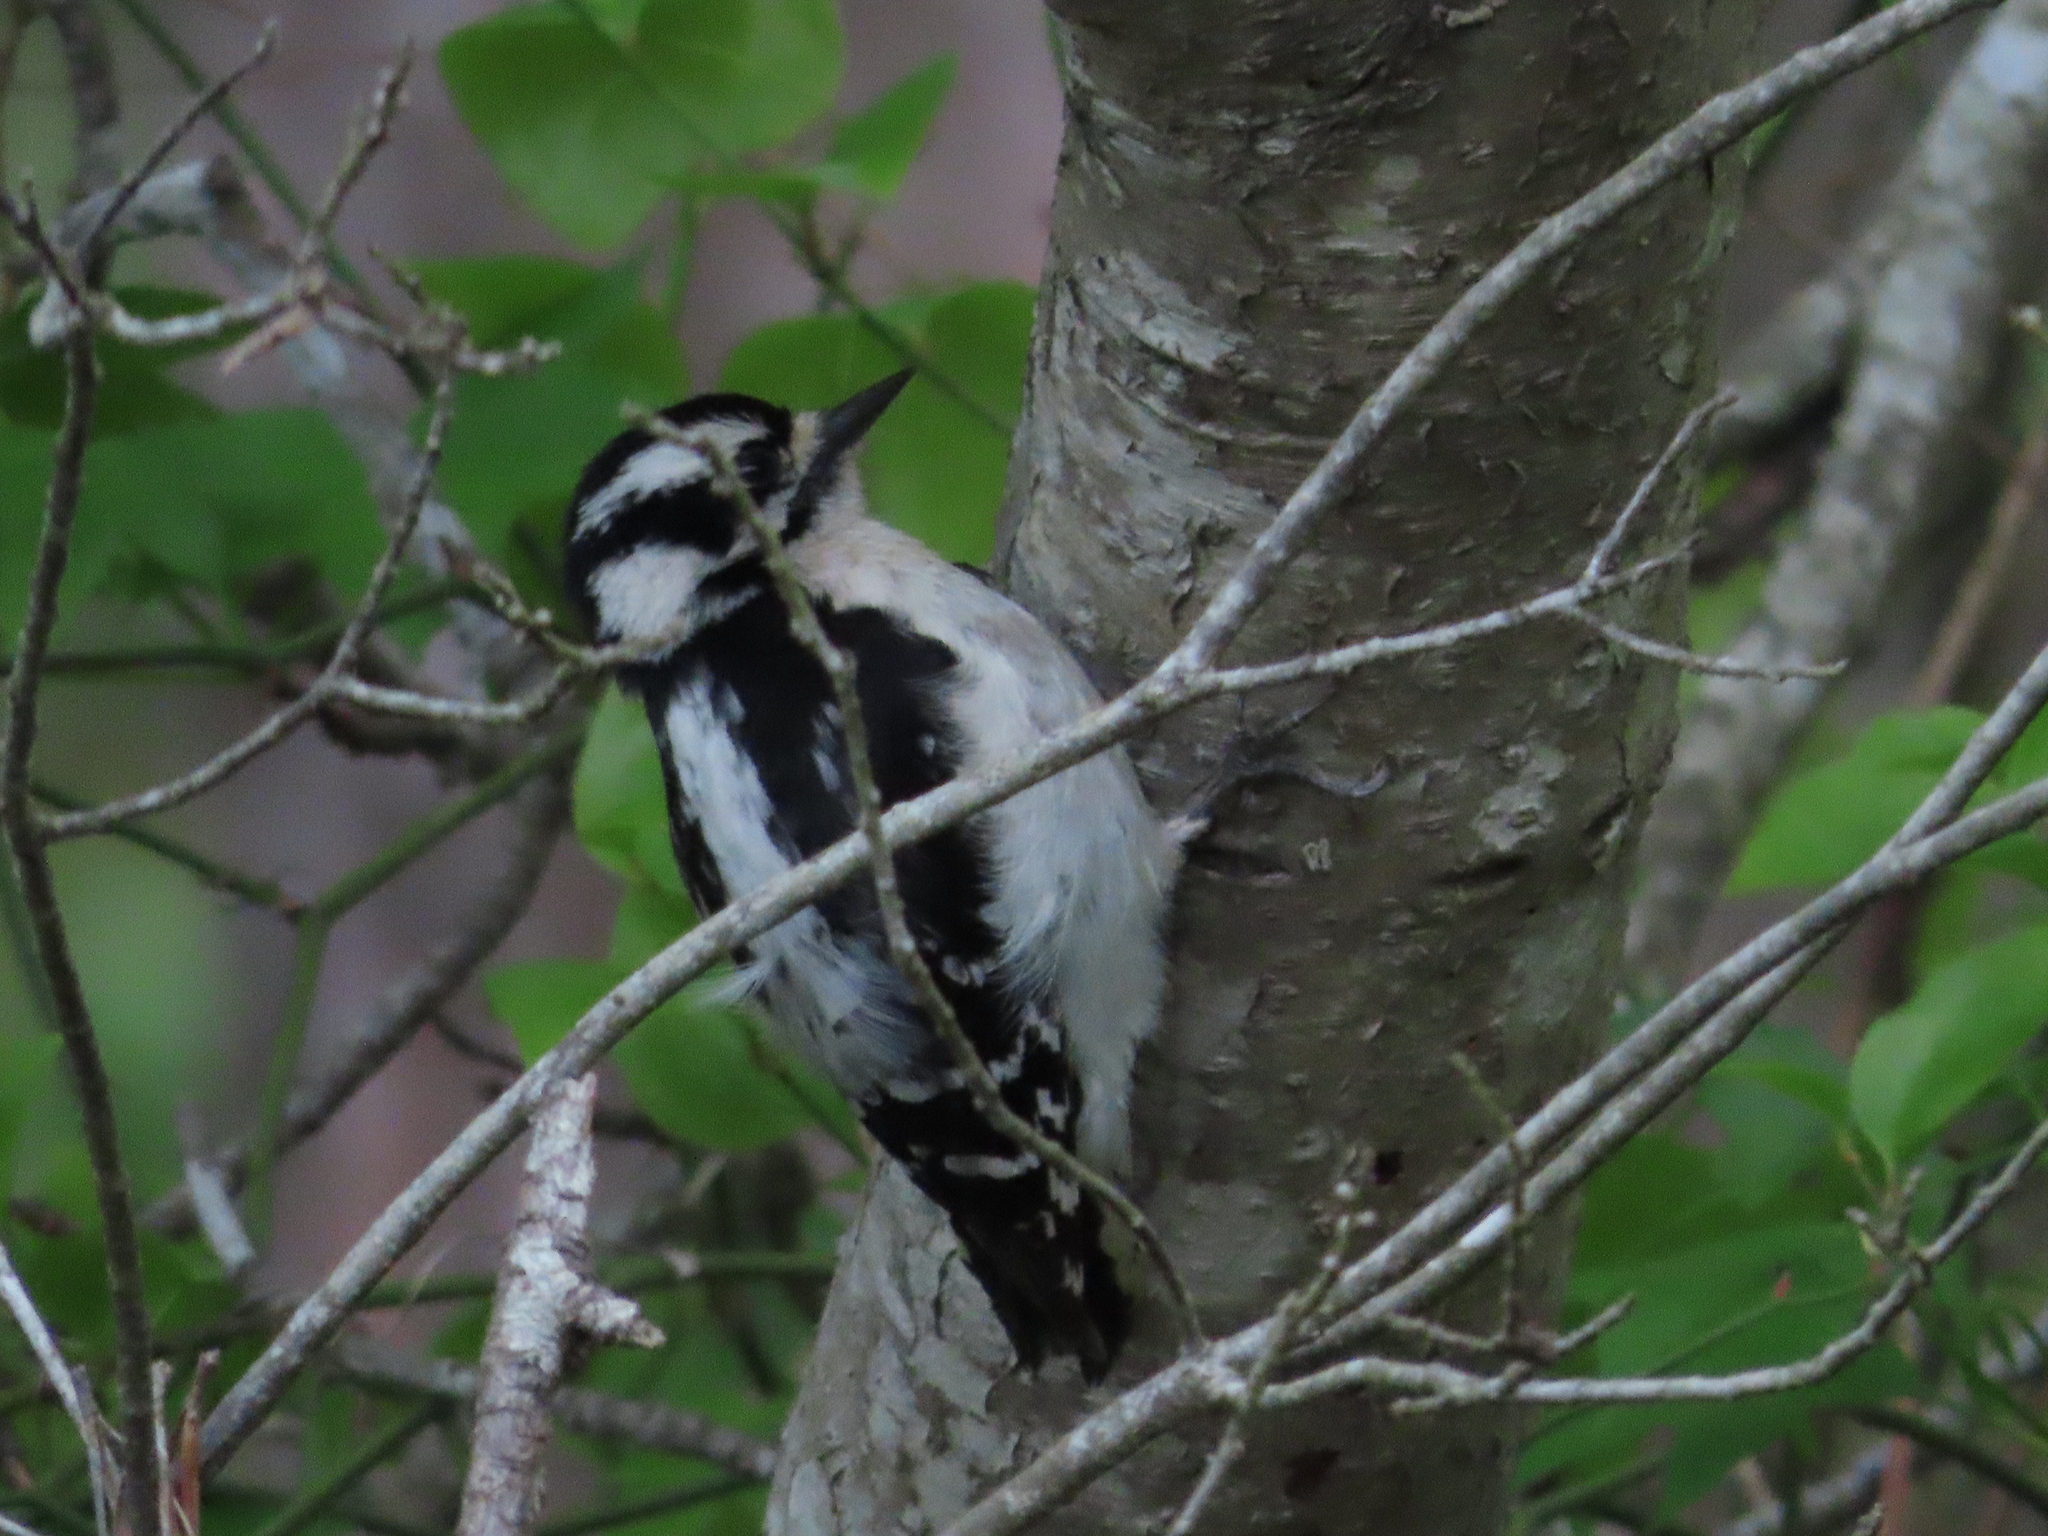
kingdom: Animalia
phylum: Chordata
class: Aves
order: Piciformes
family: Picidae
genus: Dryobates
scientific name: Dryobates pubescens
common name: Downy woodpecker
